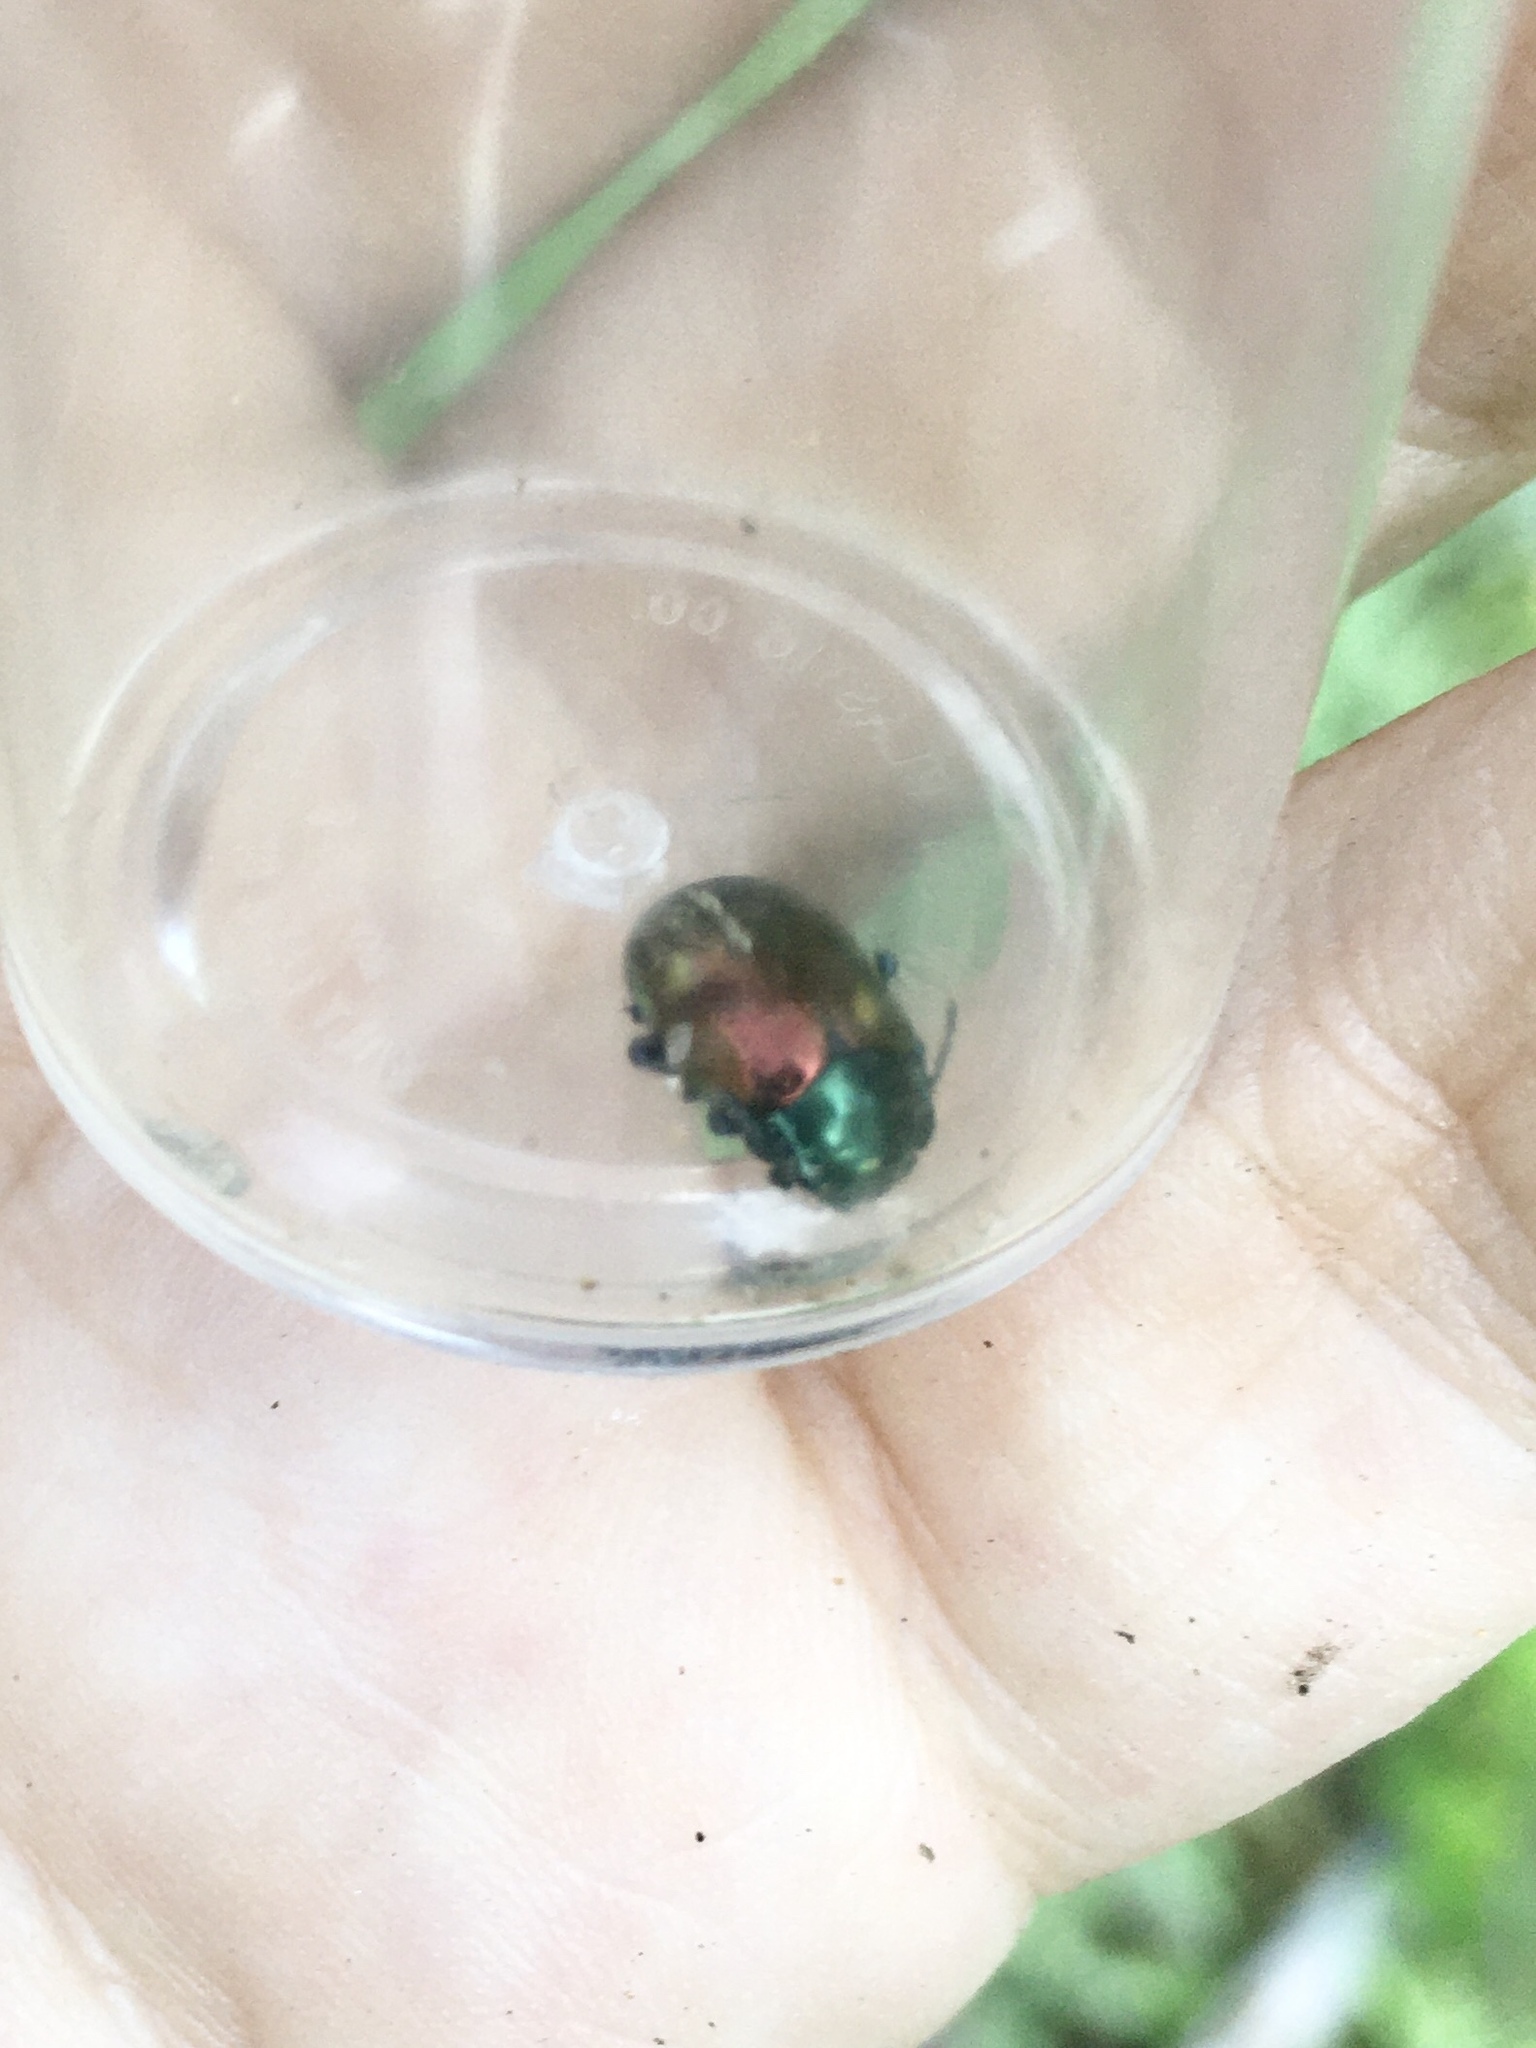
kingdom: Animalia
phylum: Arthropoda
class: Insecta
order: Coleoptera
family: Chrysomelidae
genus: Chrysolina
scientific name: Chrysolina auripennis
